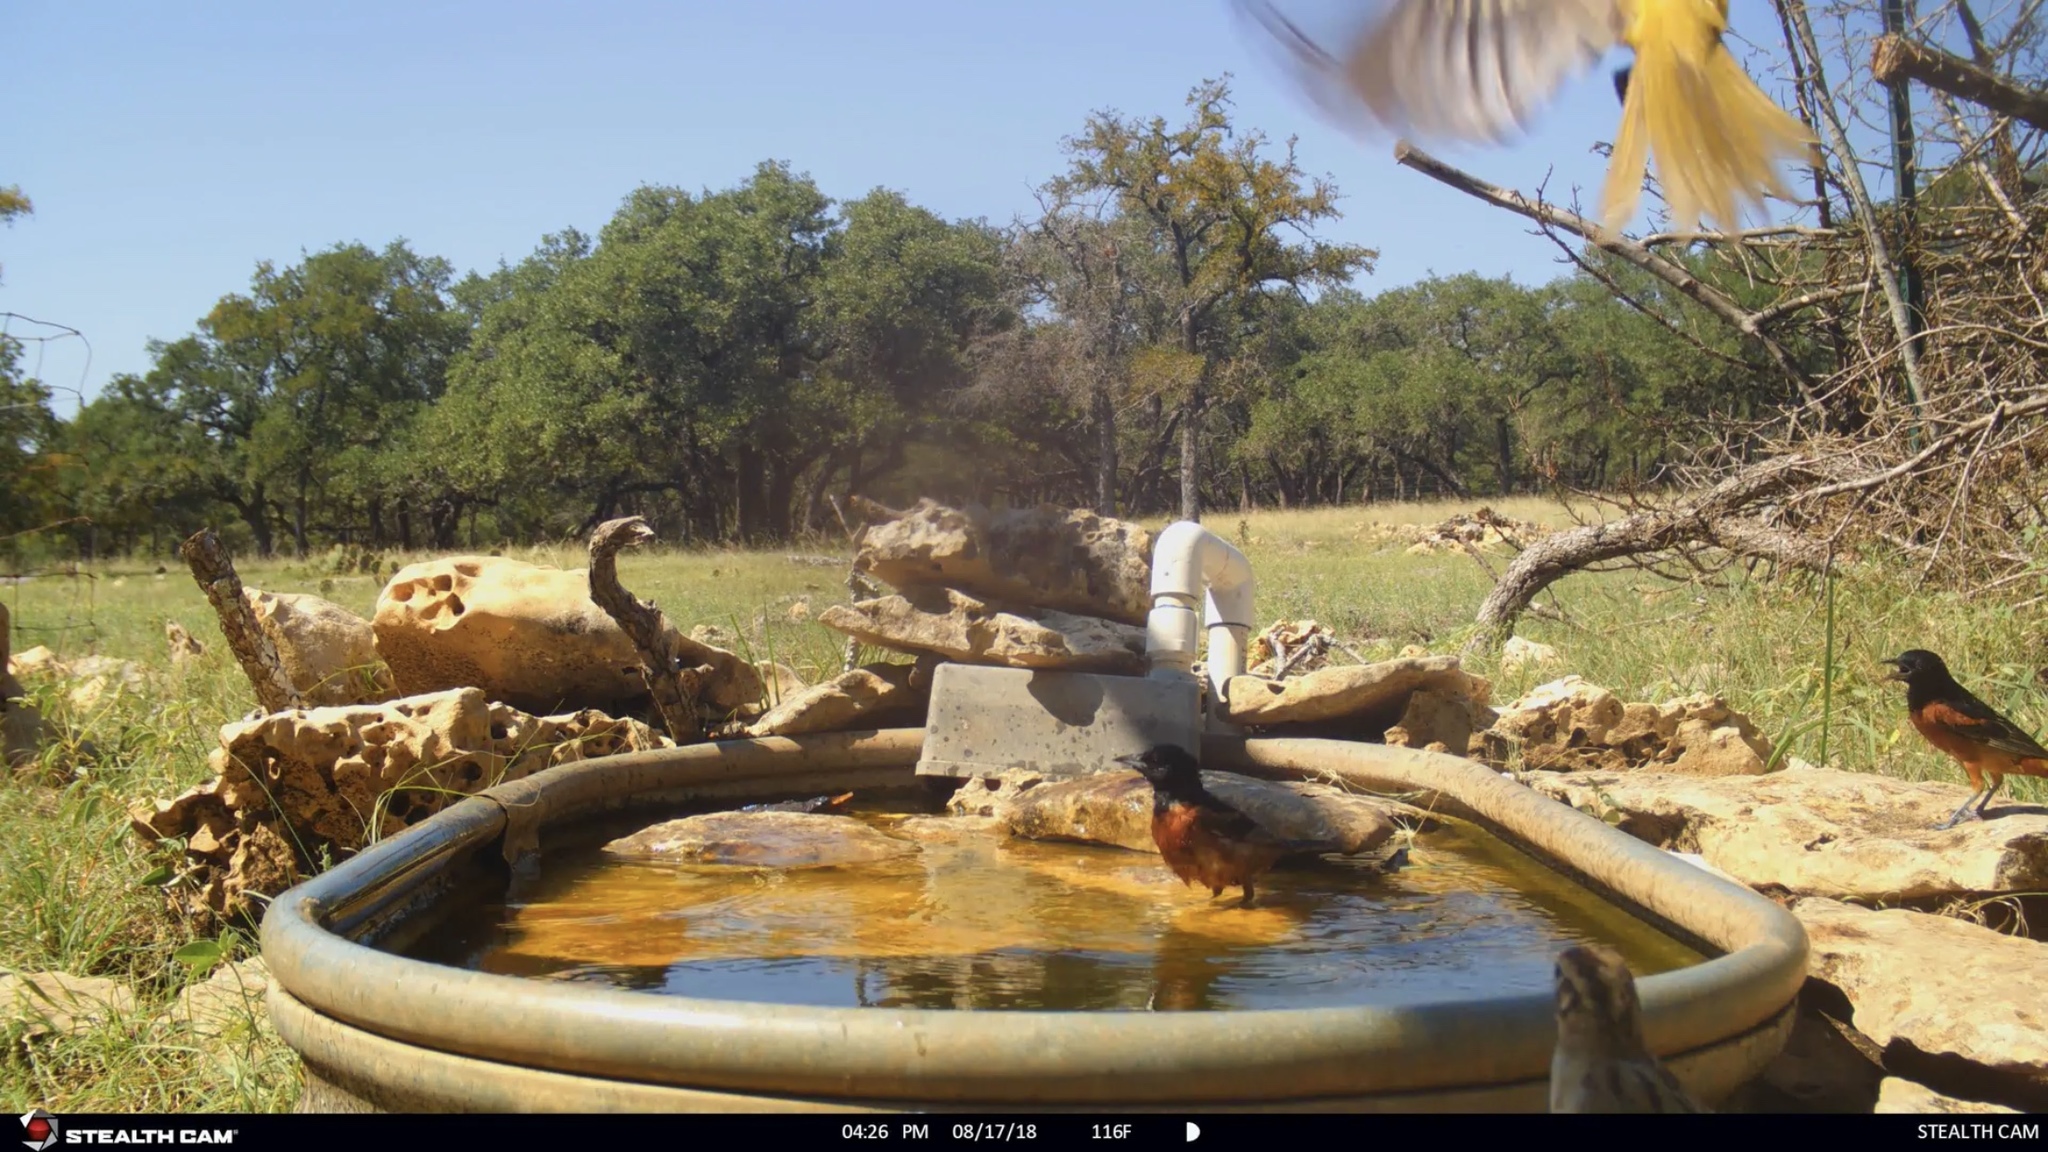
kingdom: Animalia
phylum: Chordata
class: Aves
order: Passeriformes
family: Icteridae
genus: Icterus
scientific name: Icterus spurius
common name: Orchard oriole
